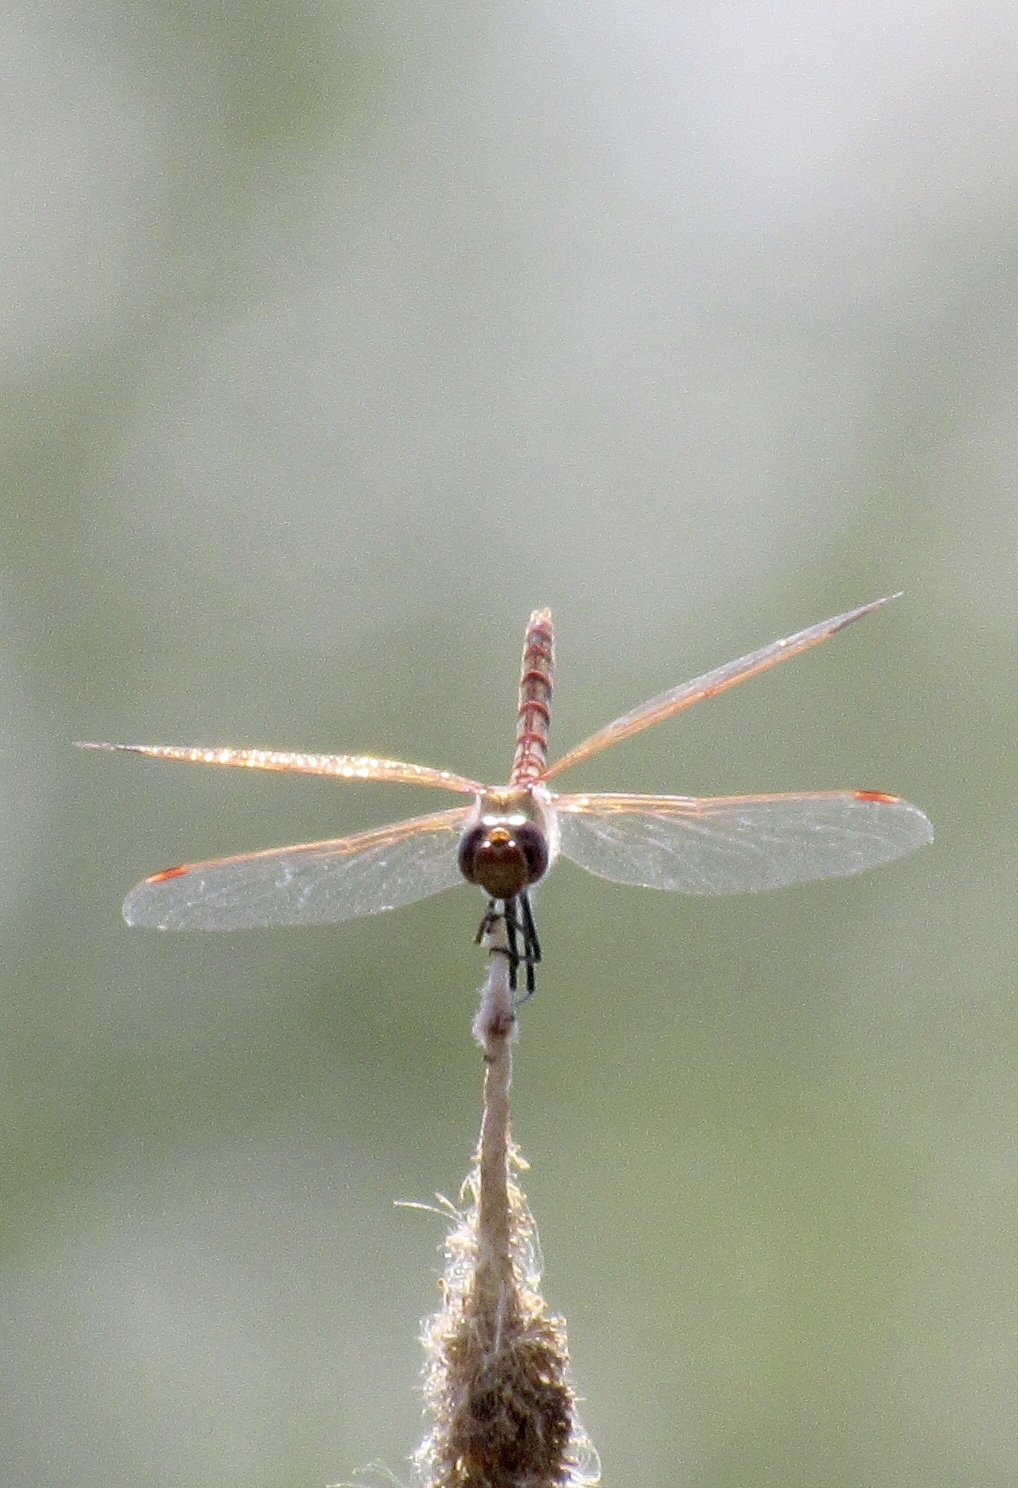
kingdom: Animalia
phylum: Arthropoda
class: Insecta
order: Odonata
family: Libellulidae
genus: Sympetrum
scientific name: Sympetrum corruptum
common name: Variegated meadowhawk
